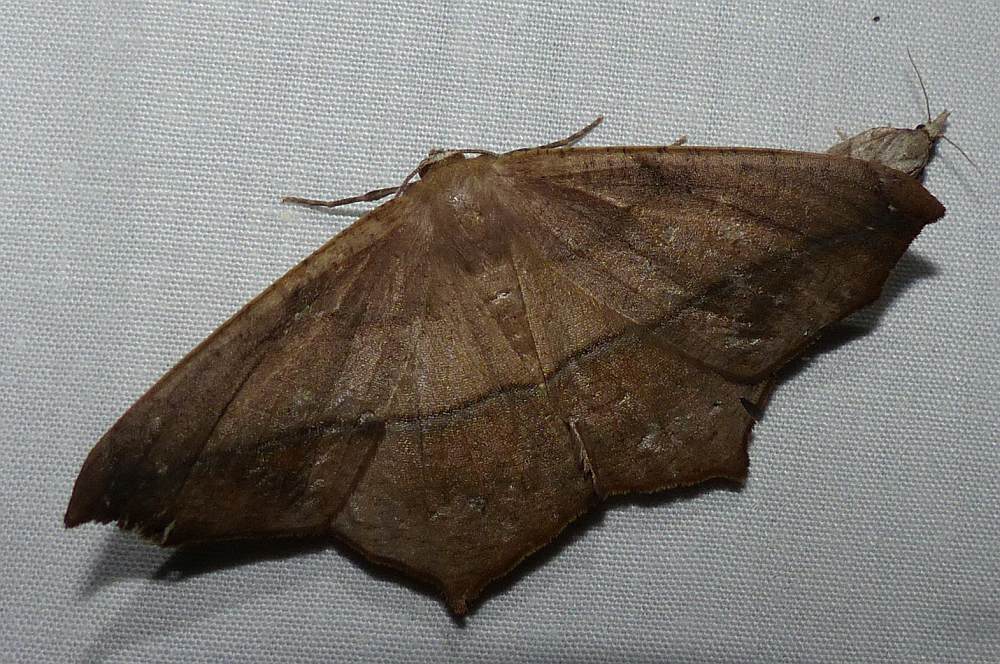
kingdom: Animalia
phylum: Arthropoda
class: Insecta
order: Lepidoptera
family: Geometridae
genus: Prochoerodes
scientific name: Prochoerodes lineola
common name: Large maple spanworm
